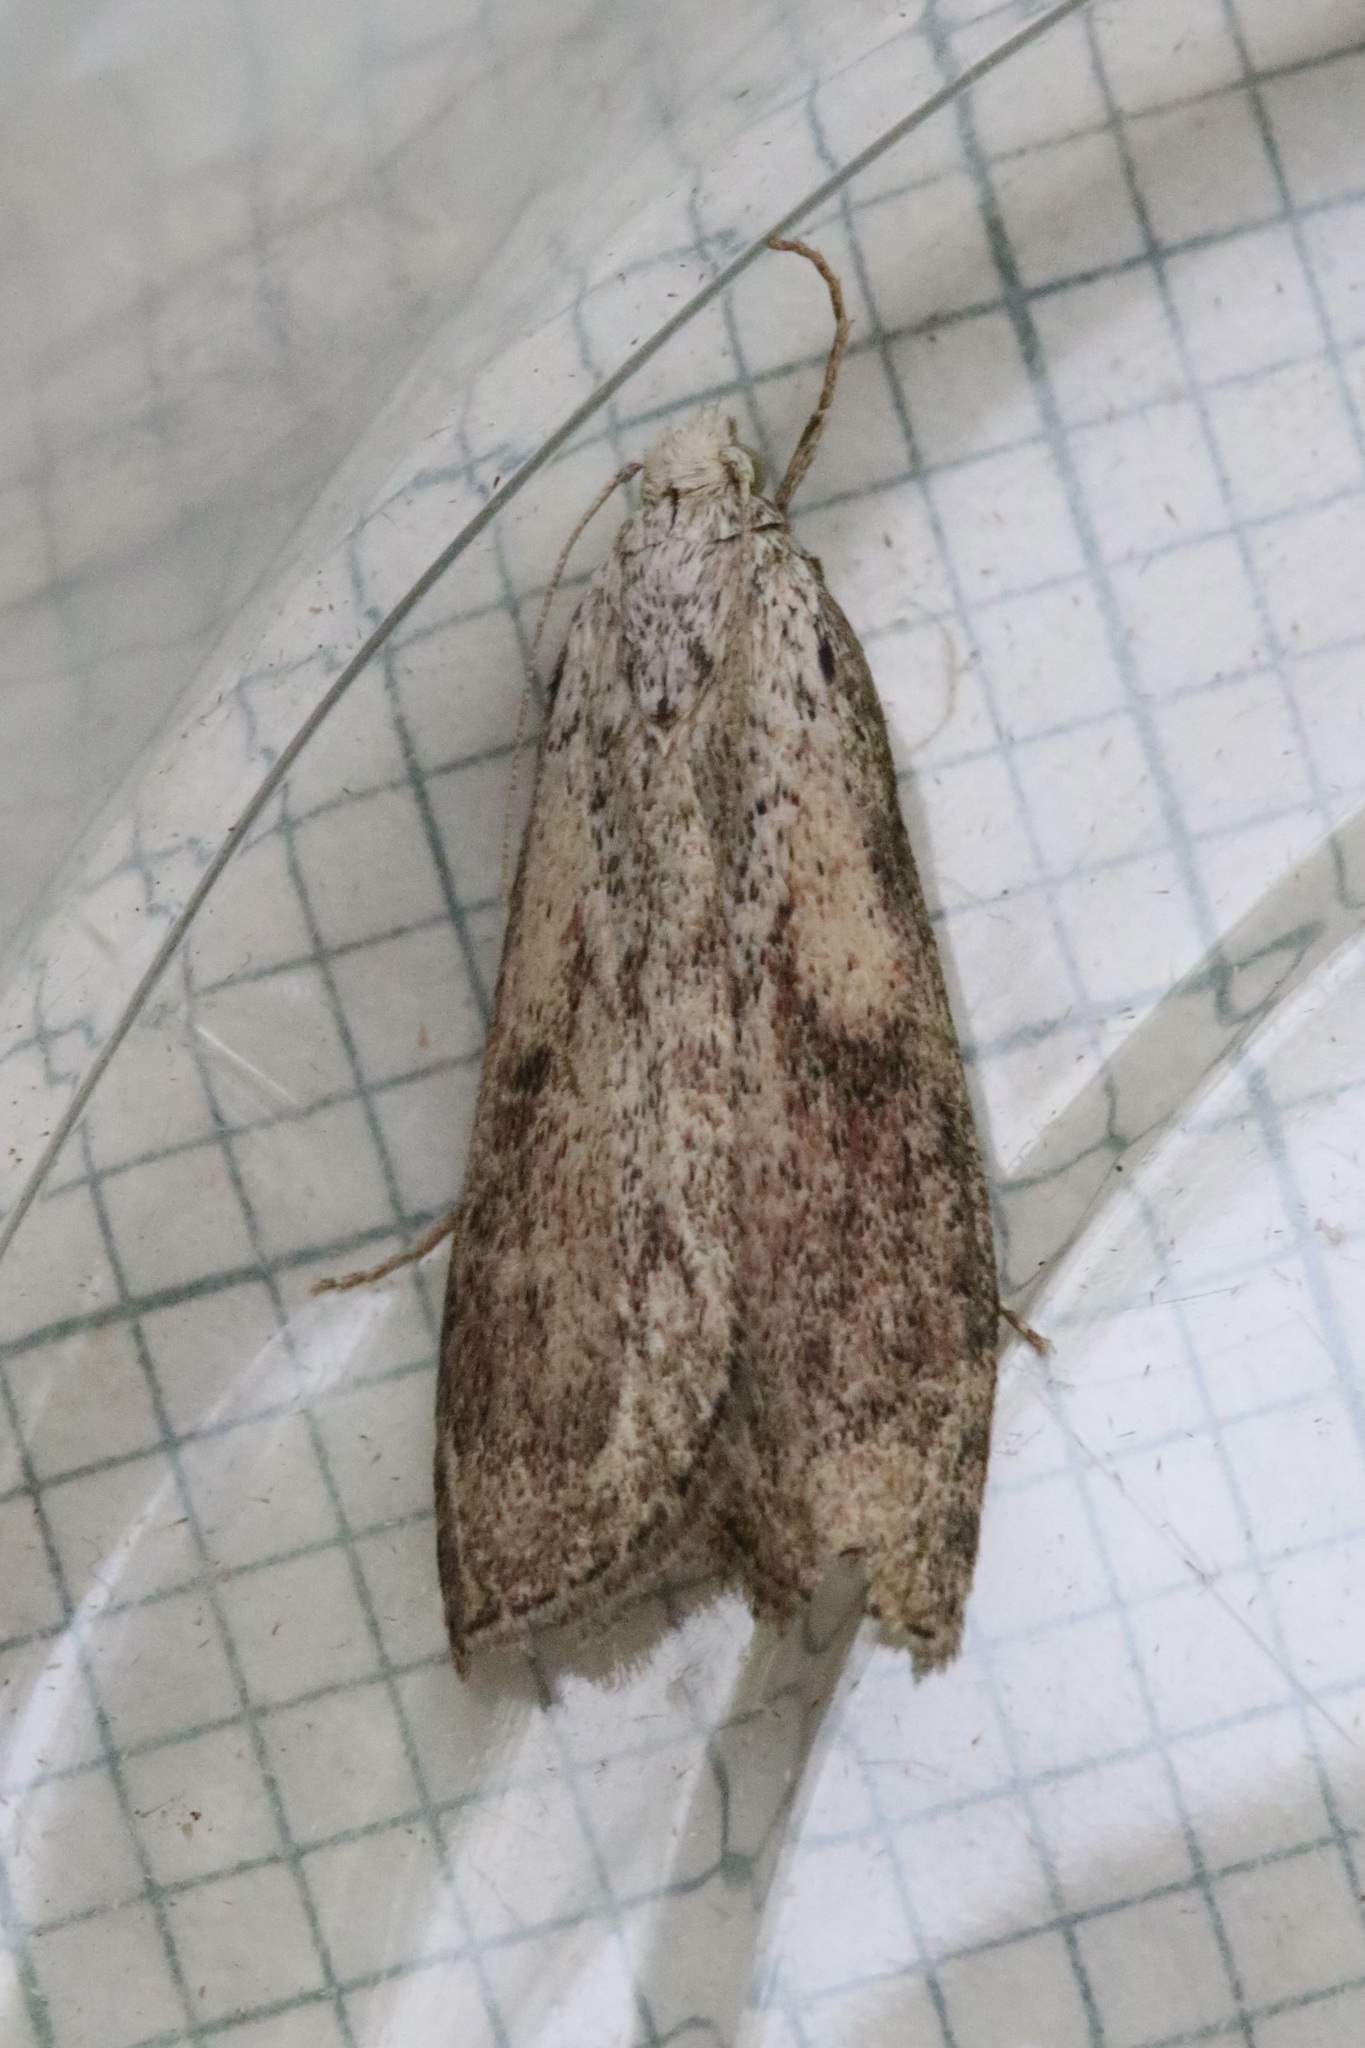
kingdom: Animalia
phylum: Arthropoda
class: Insecta
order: Lepidoptera
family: Pyralidae
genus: Aphomia
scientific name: Aphomia sociella
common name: Bee moth
